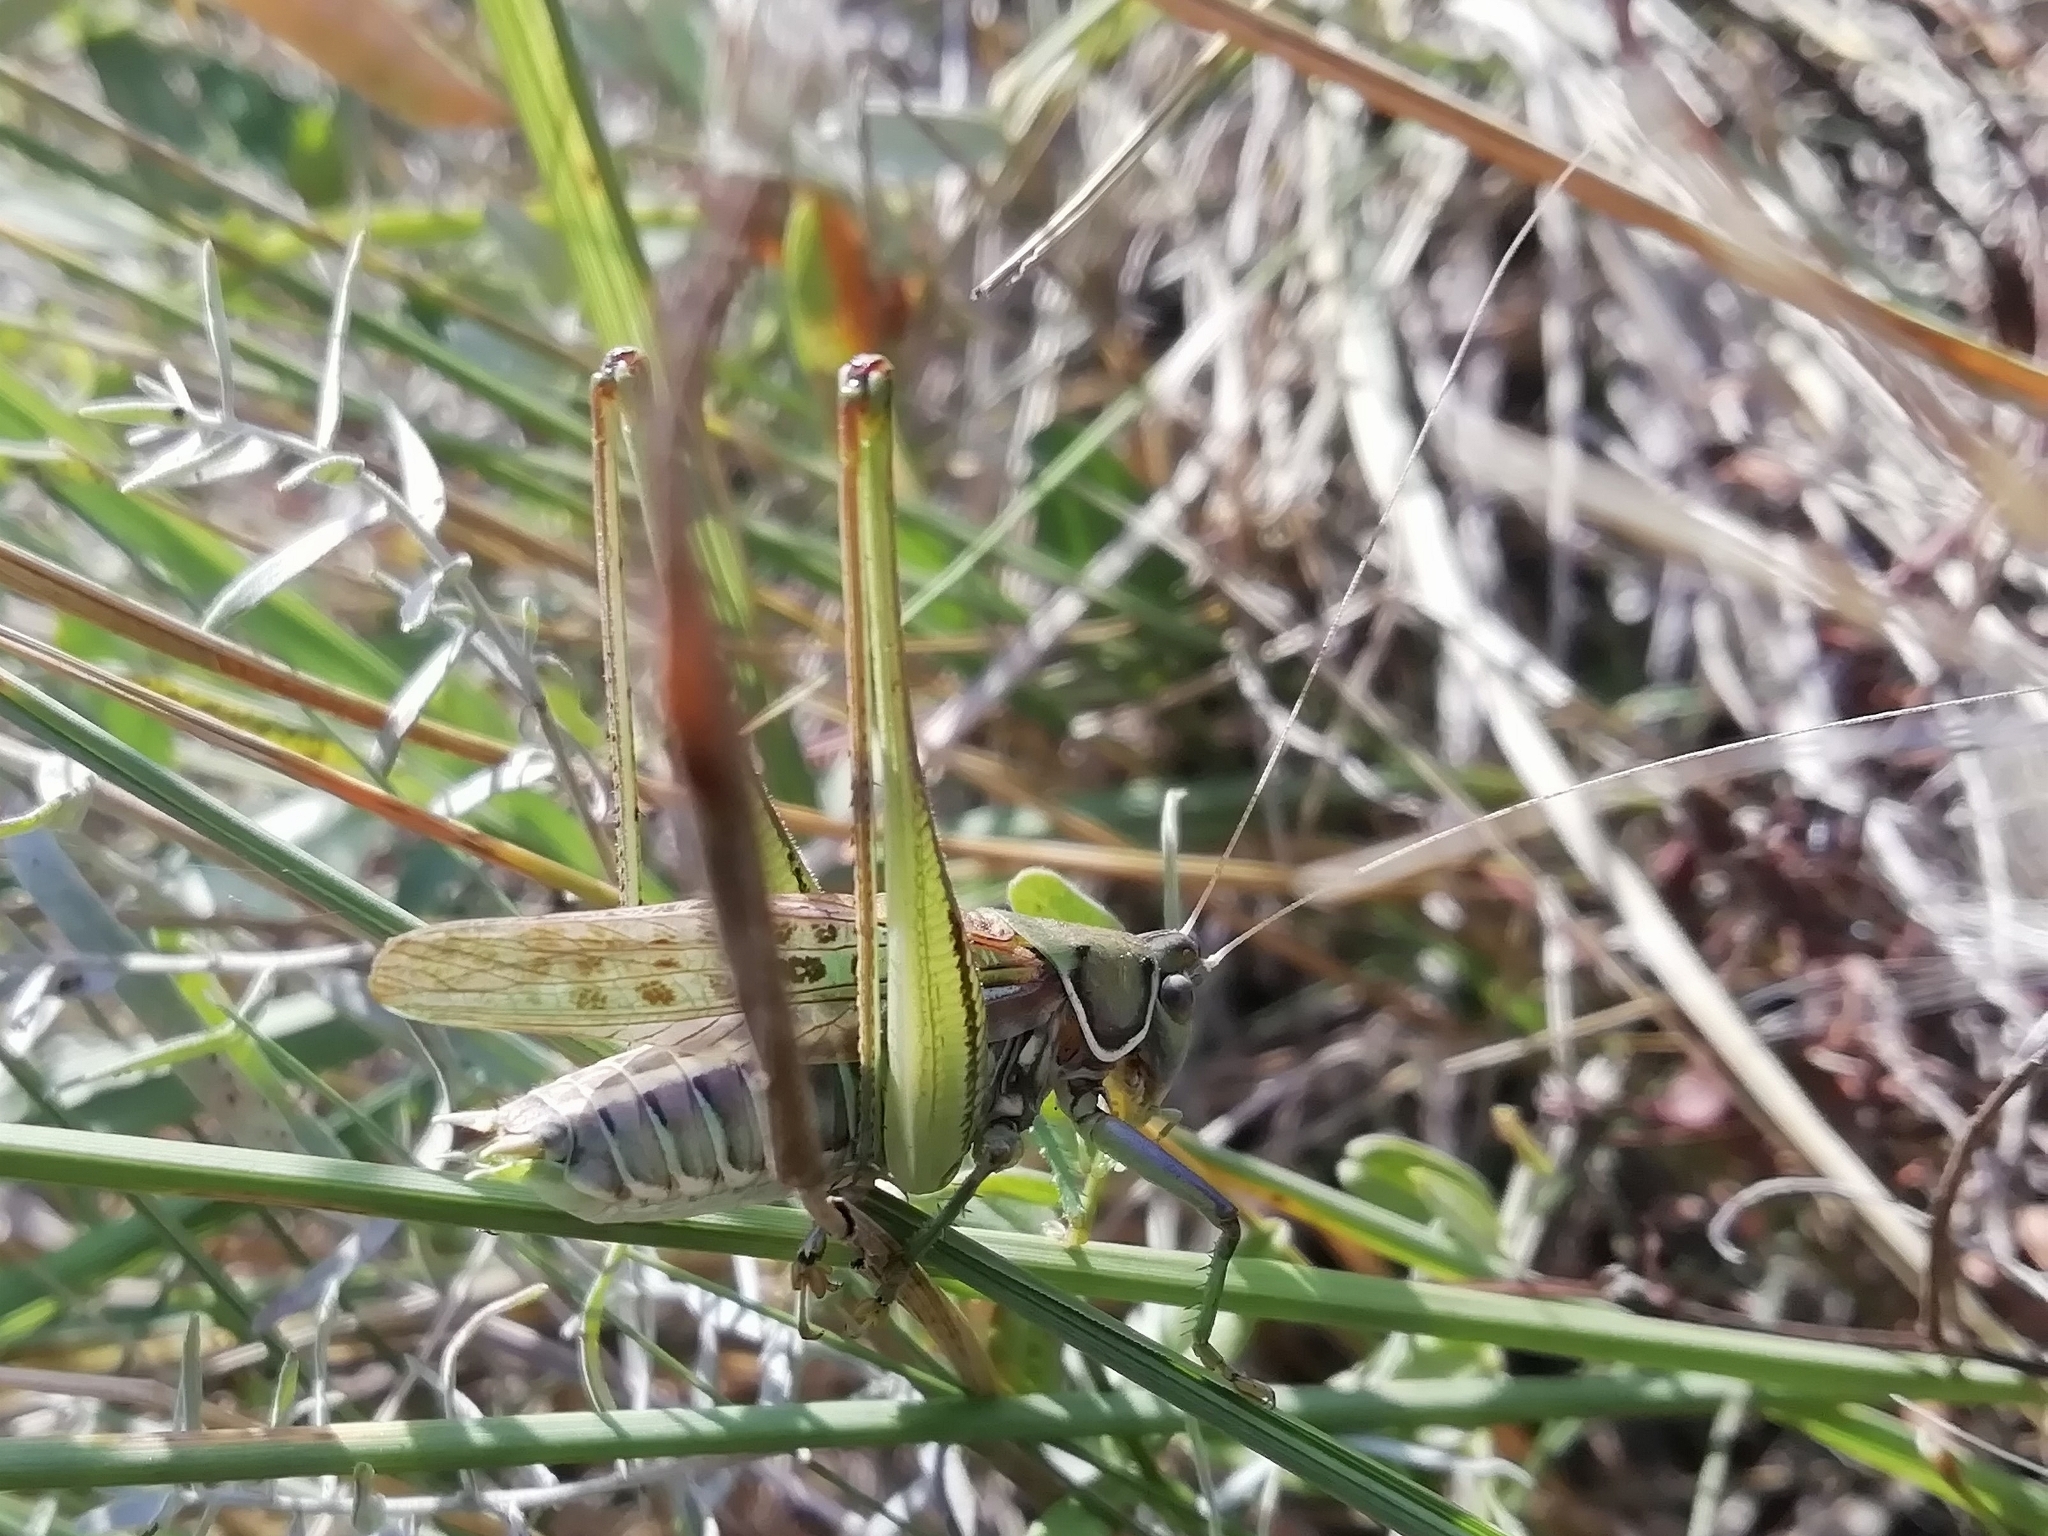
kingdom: Animalia
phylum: Arthropoda
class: Insecta
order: Orthoptera
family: Tettigoniidae
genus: Gampsocleis
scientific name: Gampsocleis glabra
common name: Heath bushcricket
